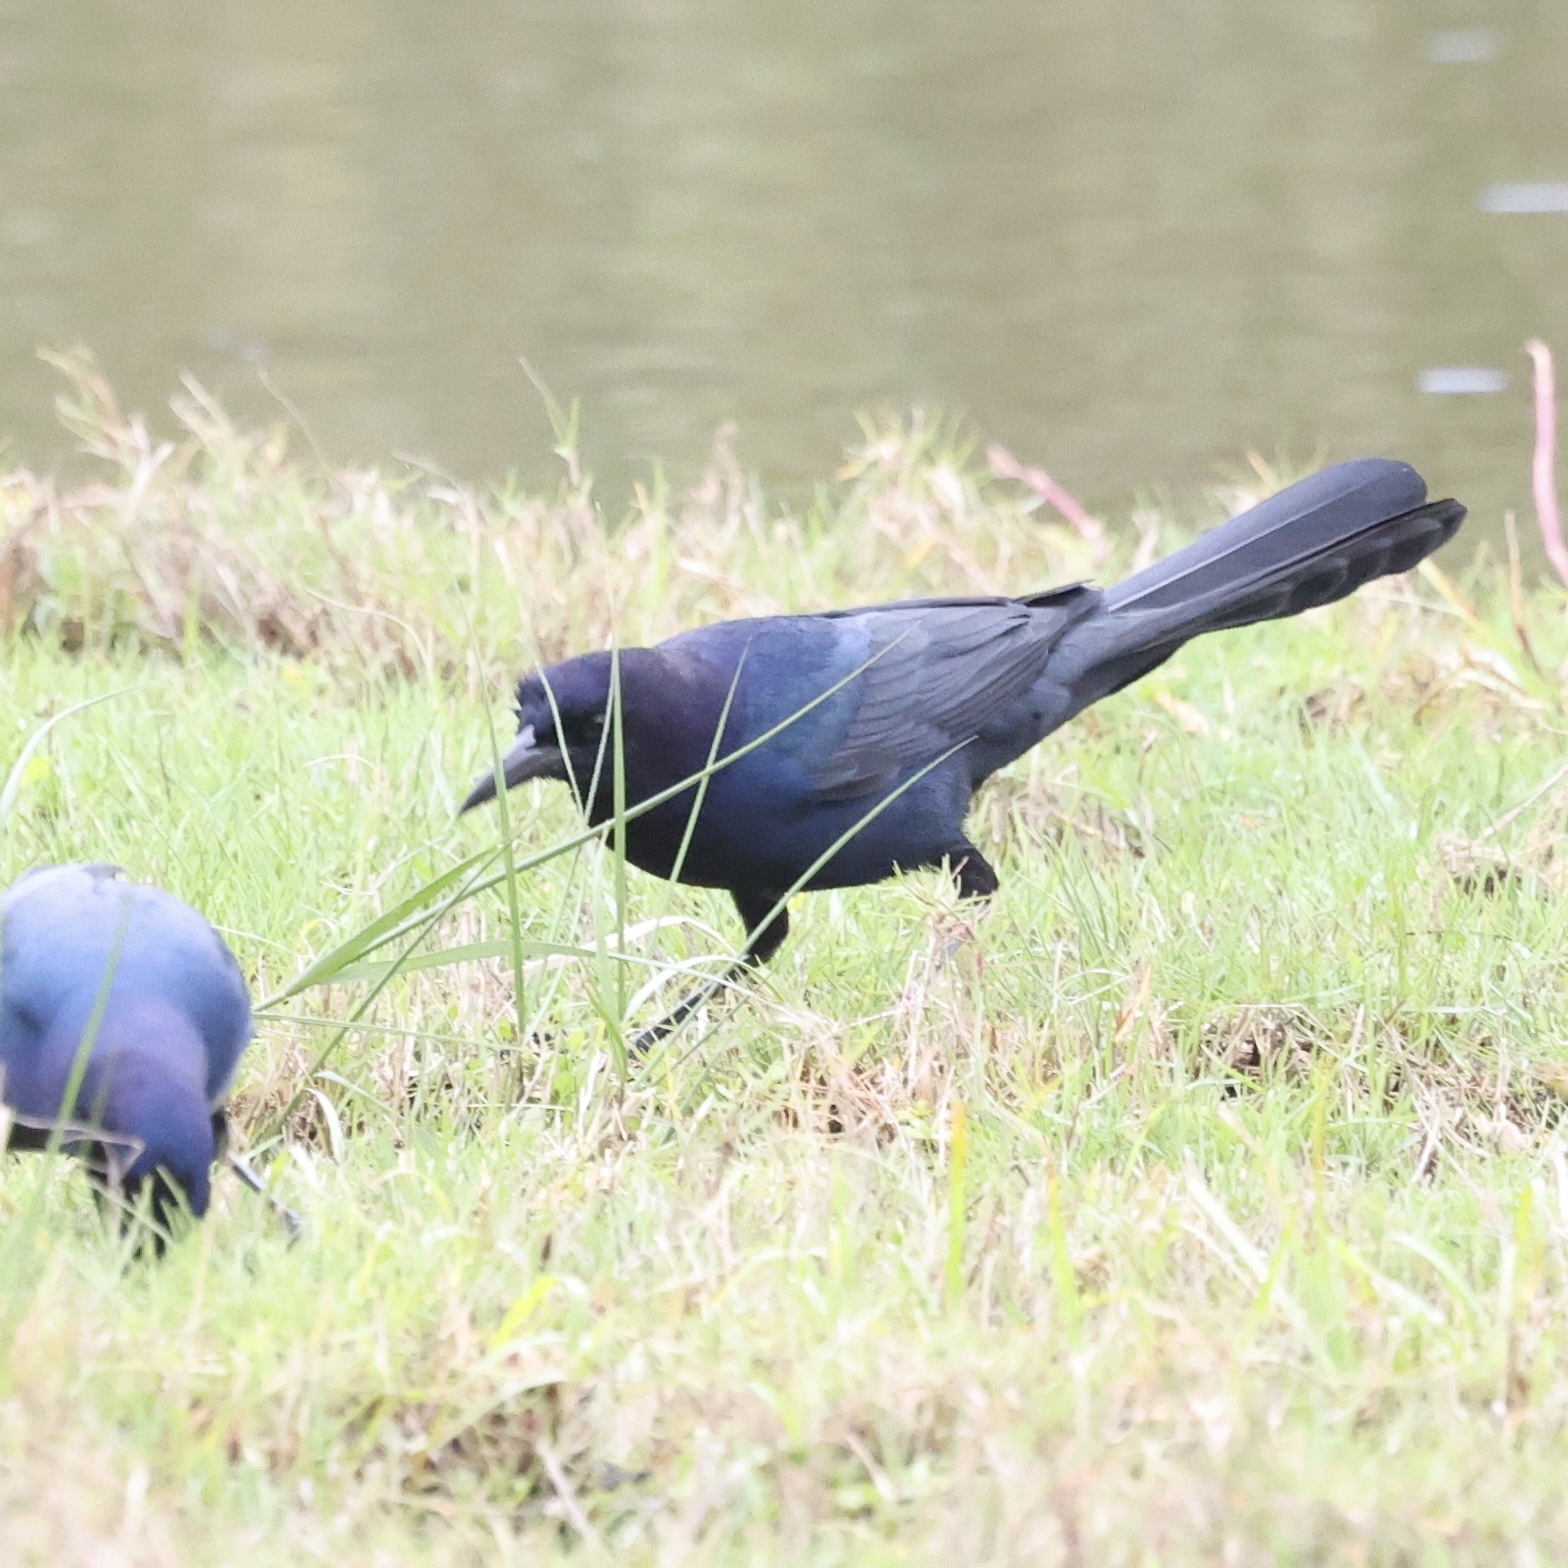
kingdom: Animalia
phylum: Chordata
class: Aves
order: Passeriformes
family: Icteridae
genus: Quiscalus
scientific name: Quiscalus major
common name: Boat-tailed grackle
